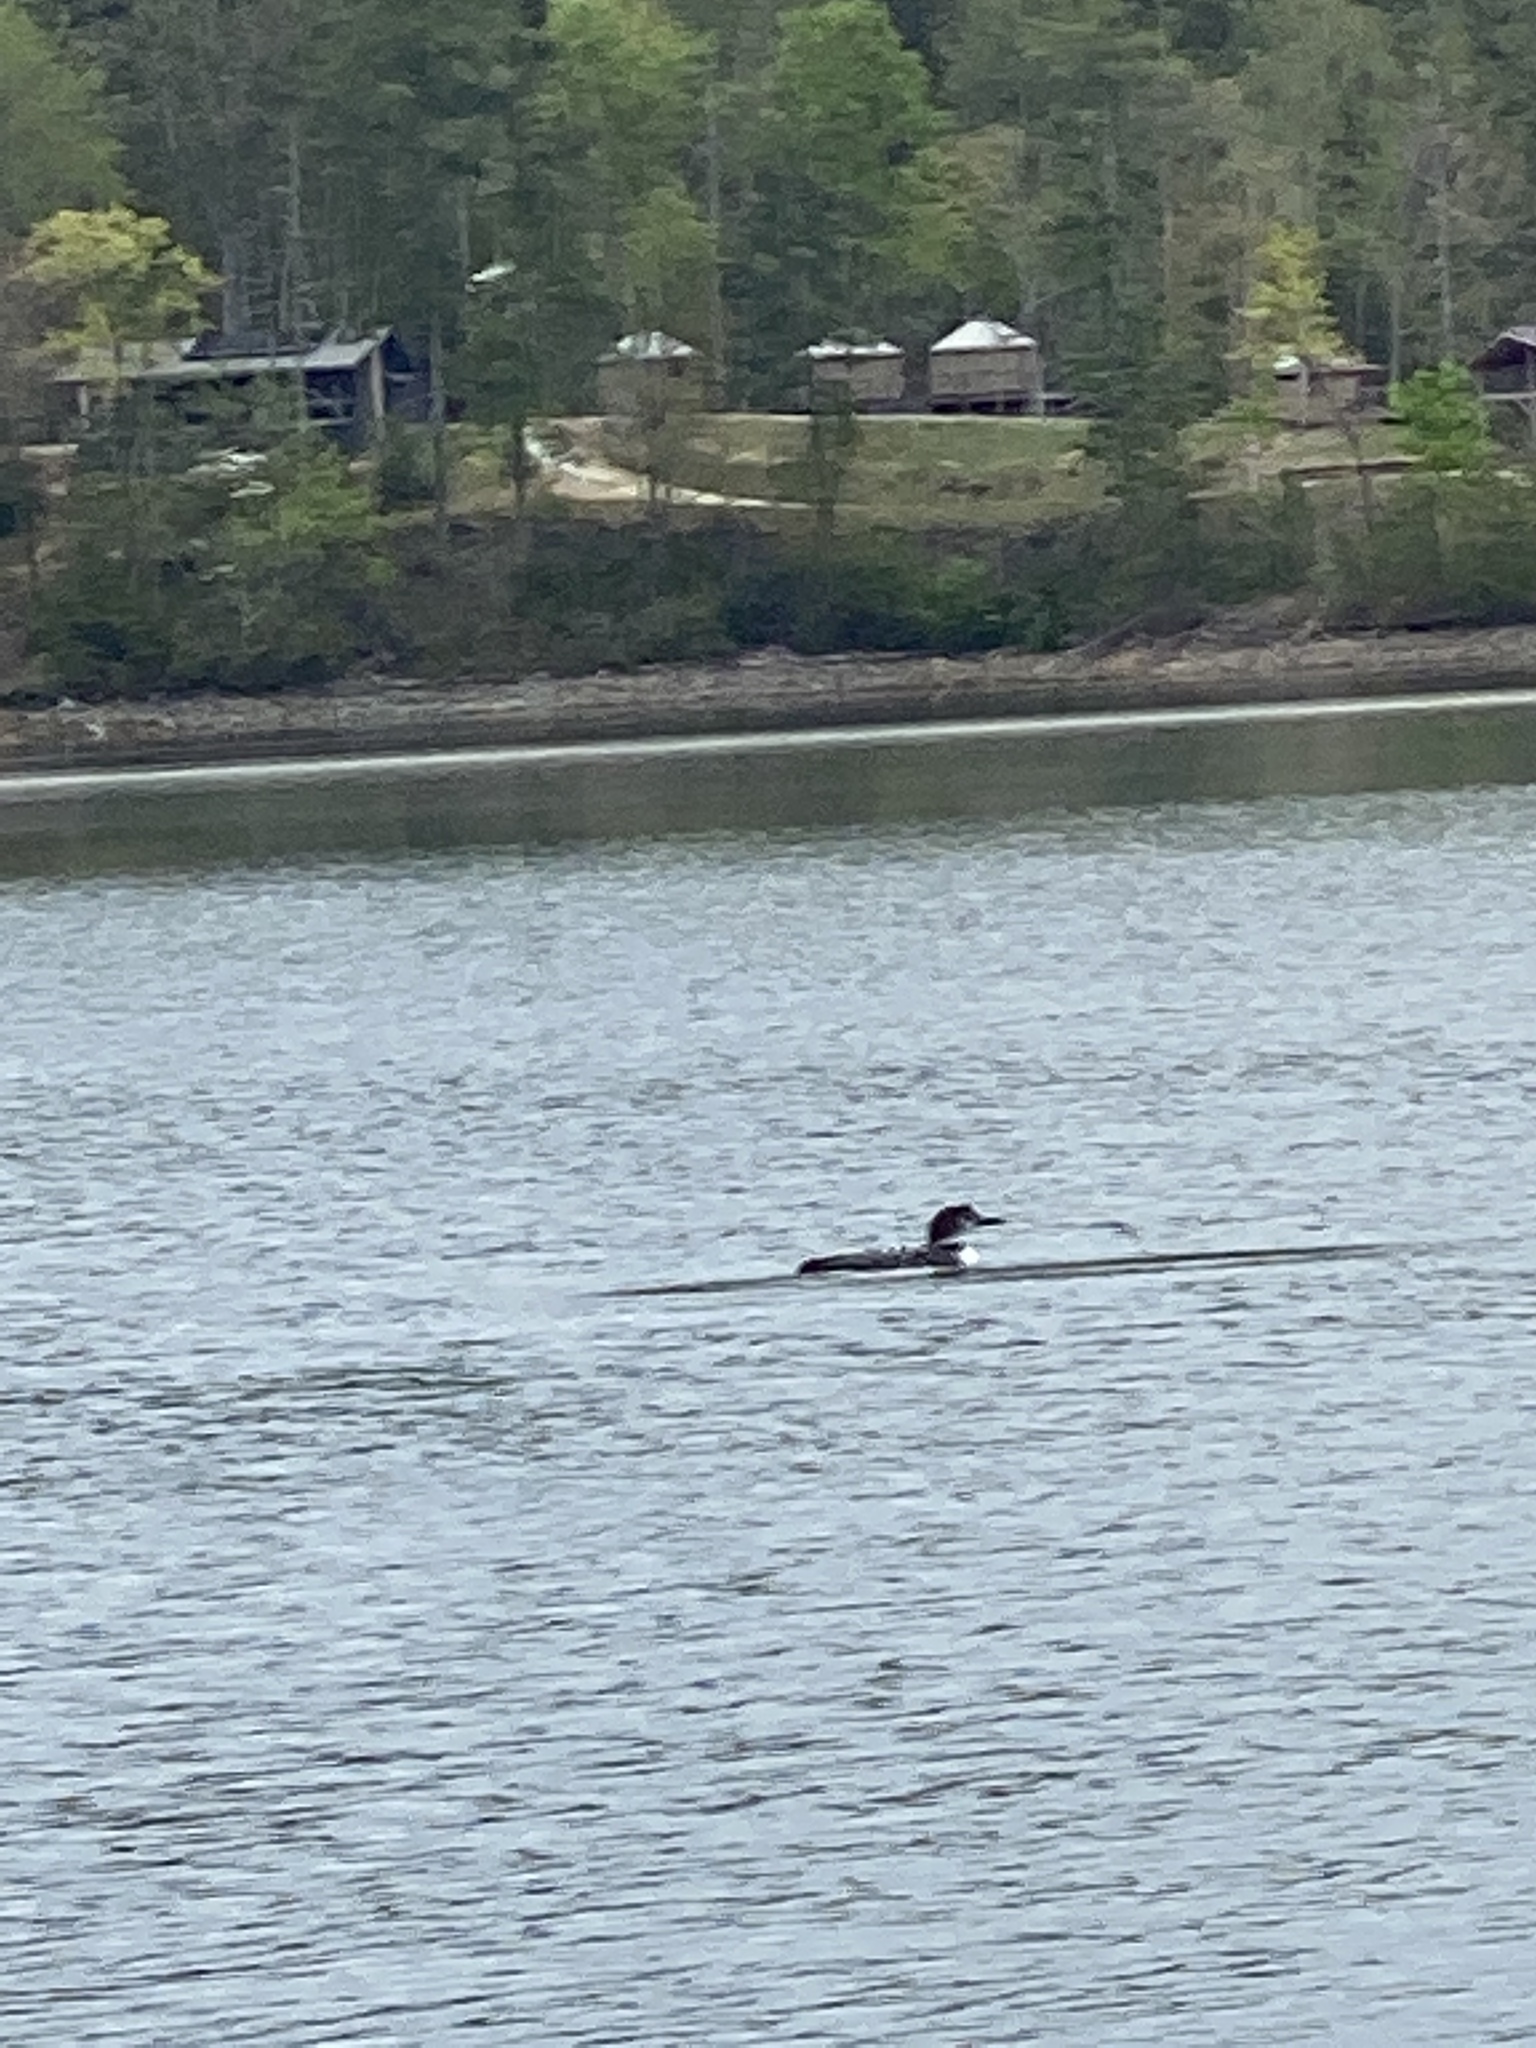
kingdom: Animalia
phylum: Chordata
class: Aves
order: Gaviiformes
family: Gaviidae
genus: Gavia
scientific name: Gavia immer
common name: Common loon
